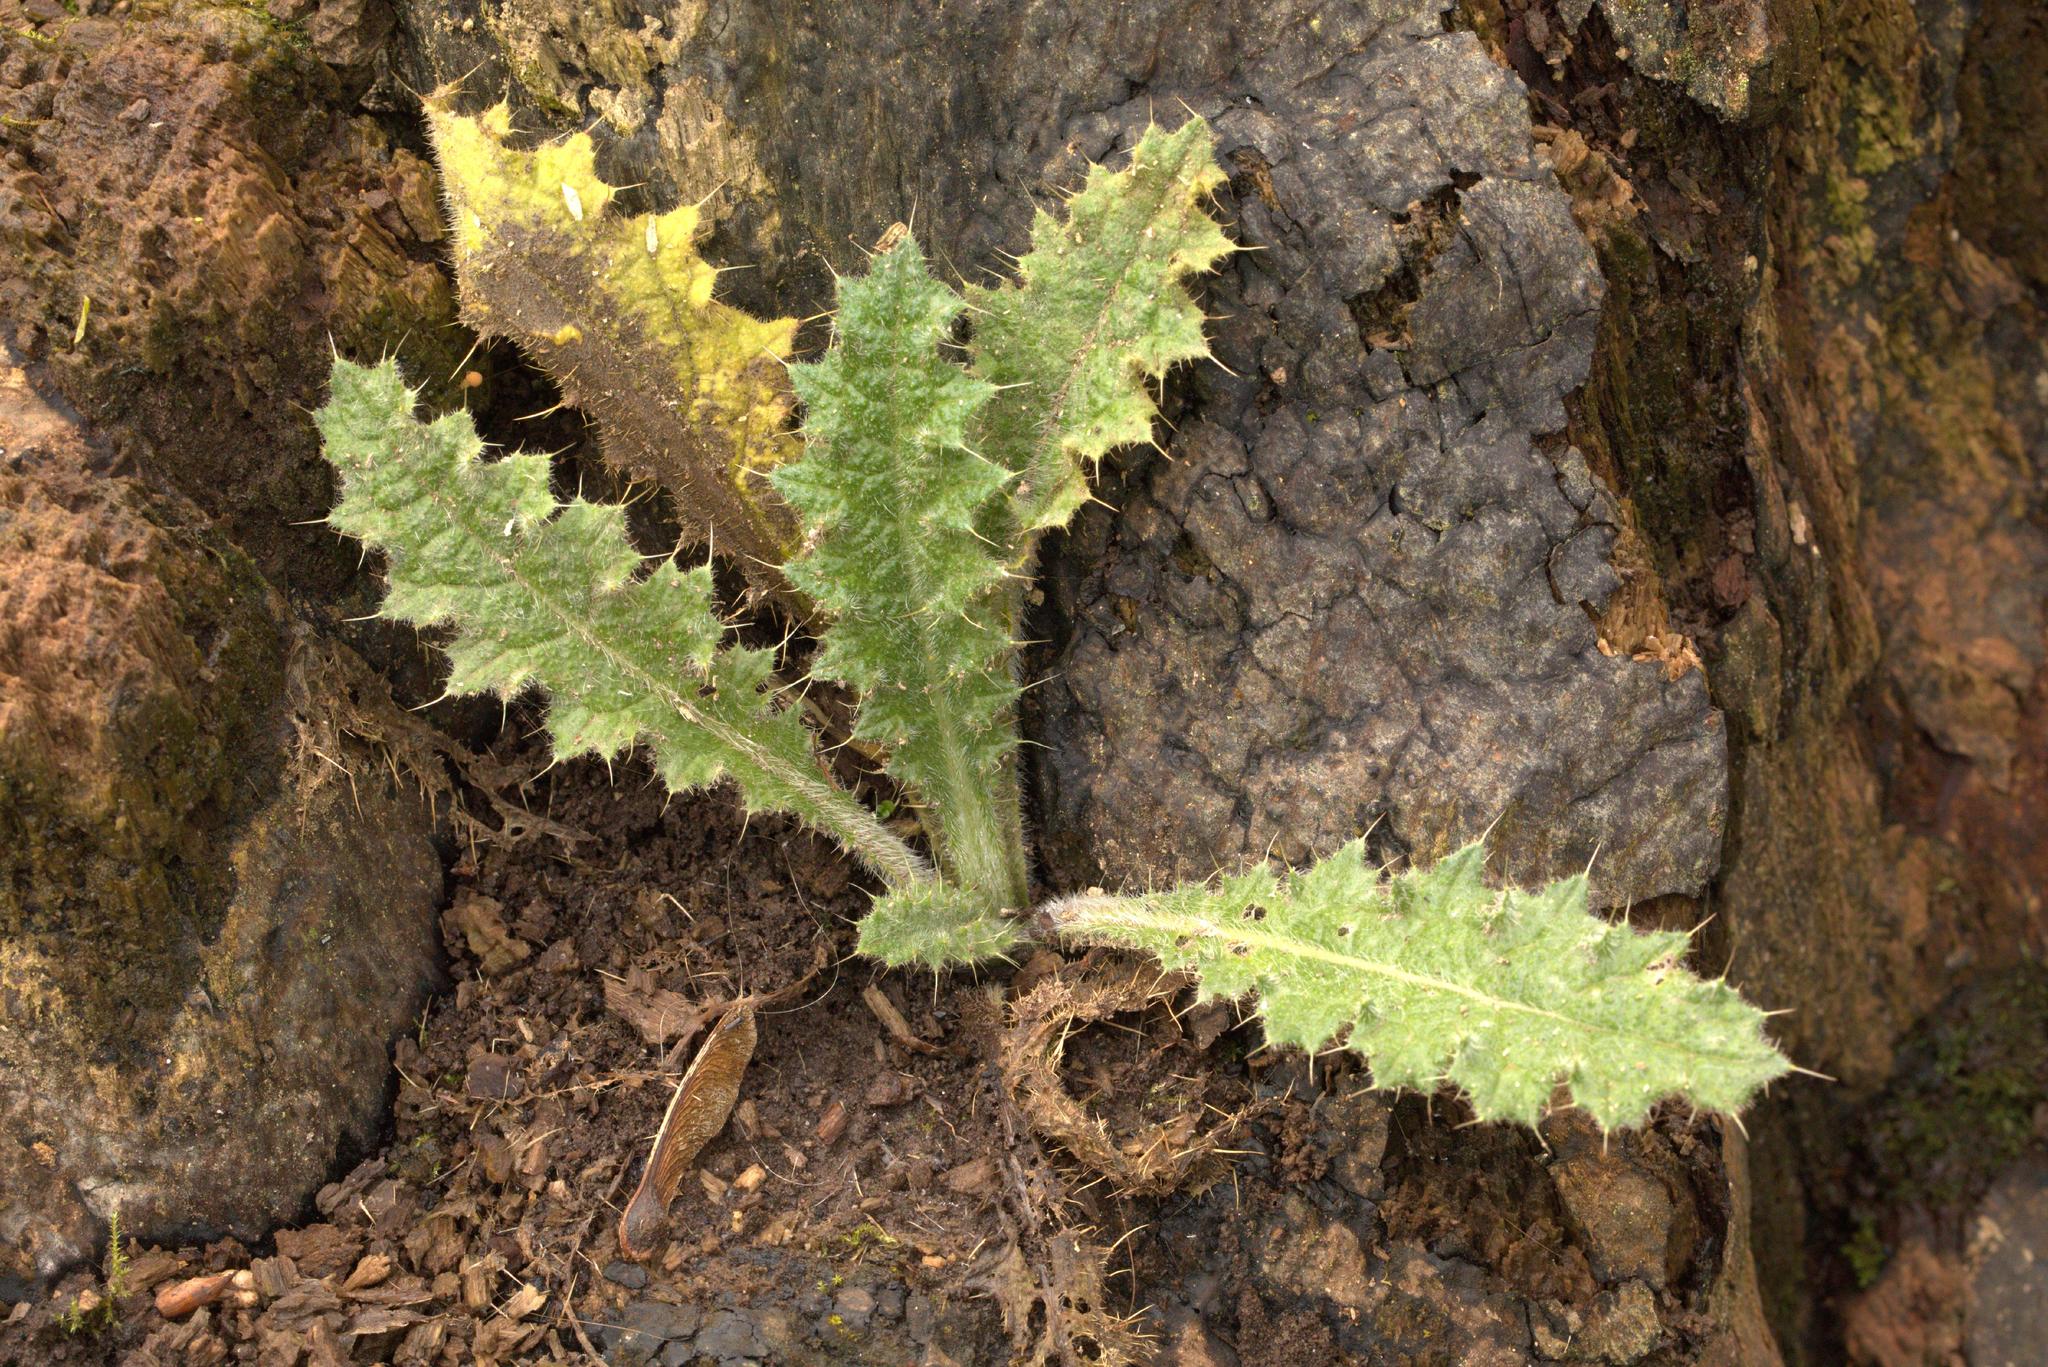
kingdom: Plantae
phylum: Tracheophyta
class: Magnoliopsida
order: Asterales
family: Asteraceae
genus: Cirsium
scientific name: Cirsium vulgare
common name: Bull thistle
